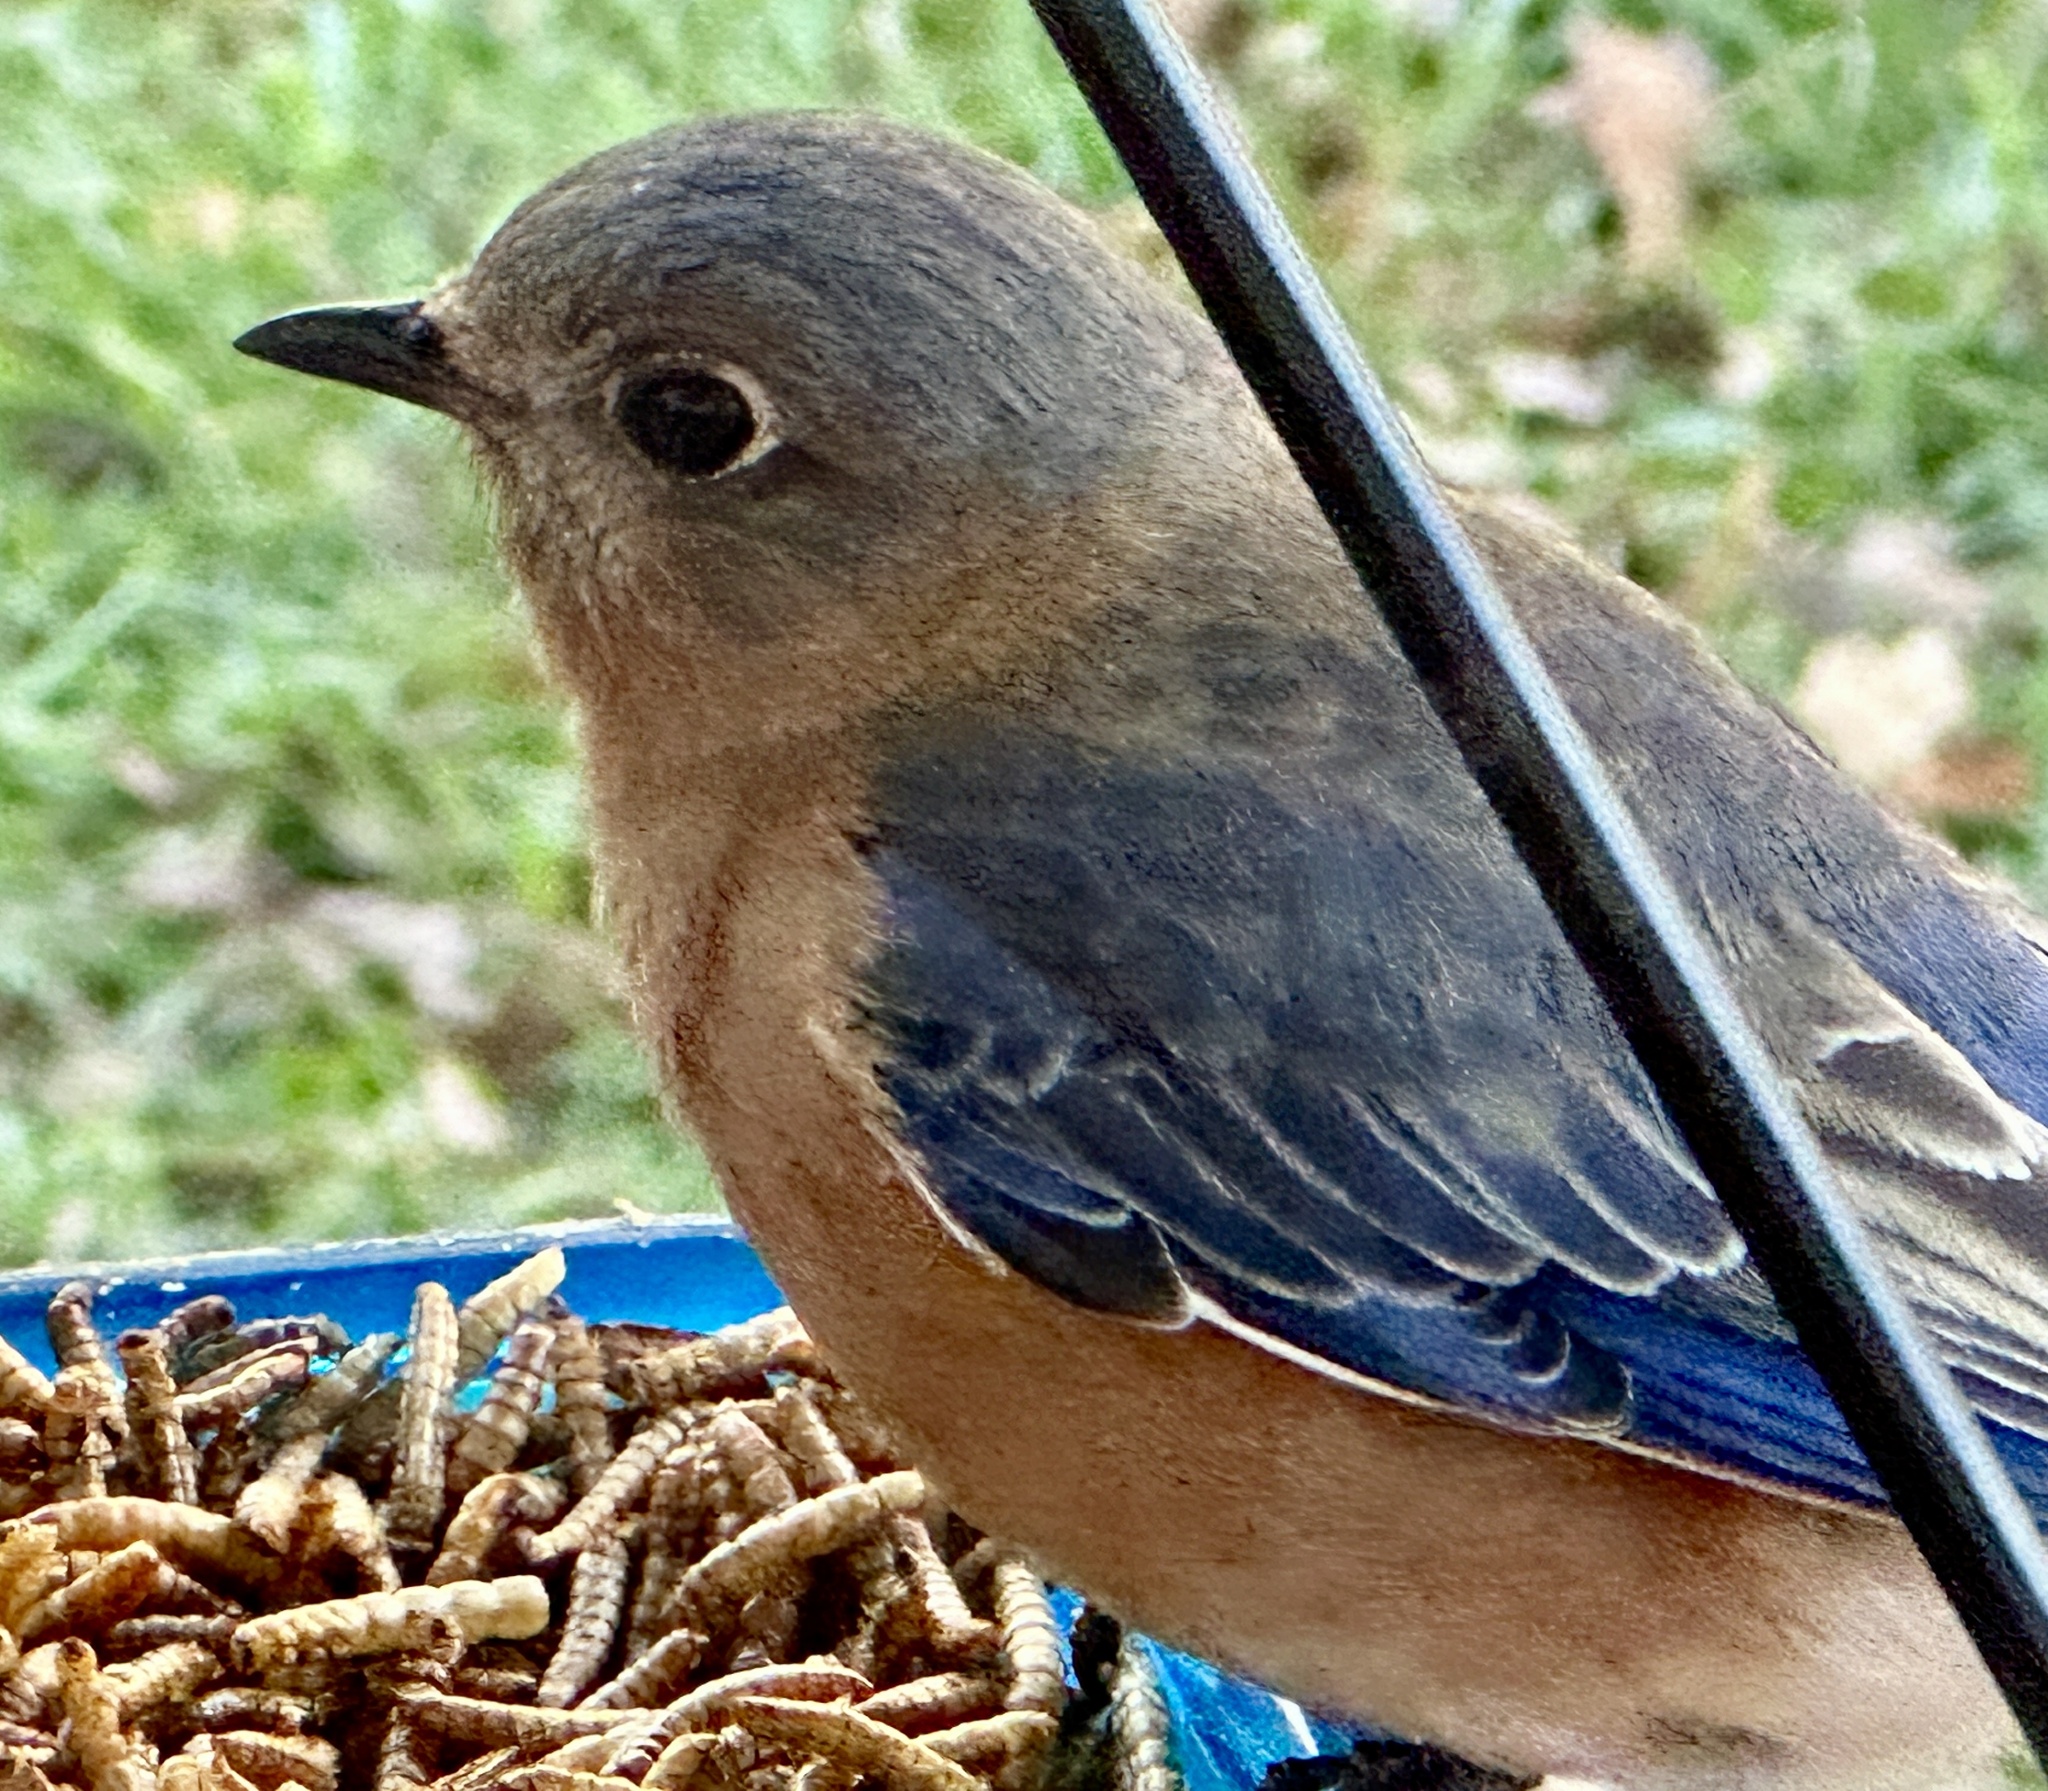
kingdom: Animalia
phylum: Chordata
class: Aves
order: Passeriformes
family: Turdidae
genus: Sialia
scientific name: Sialia sialis
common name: Eastern bluebird
